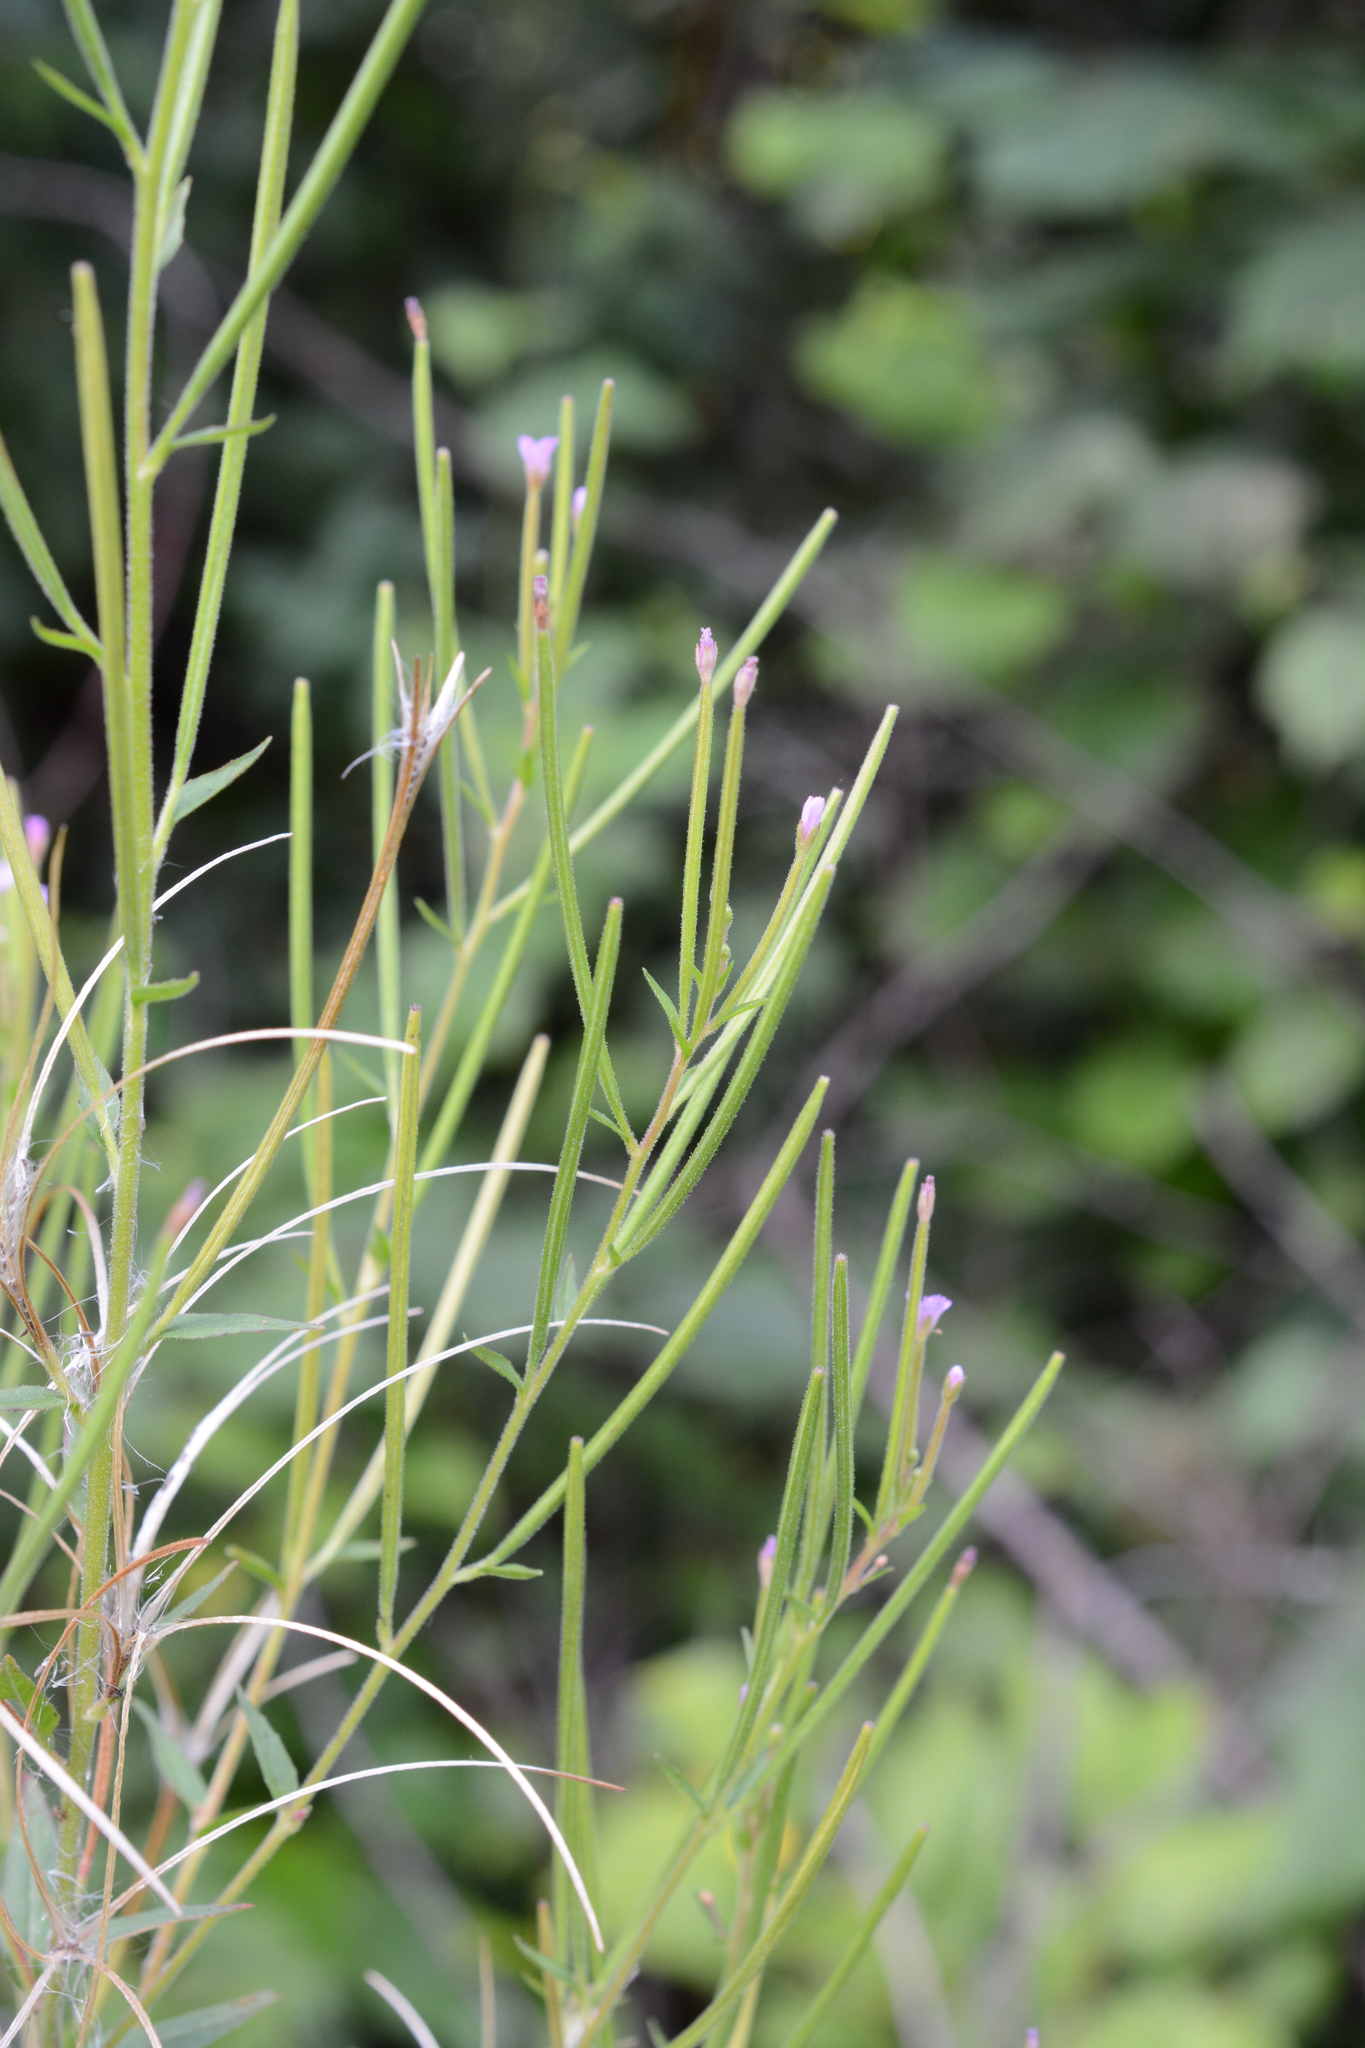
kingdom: Plantae
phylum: Tracheophyta
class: Magnoliopsida
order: Myrtales
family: Onagraceae
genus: Epilobium
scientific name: Epilobium ciliatum
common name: American willowherb
